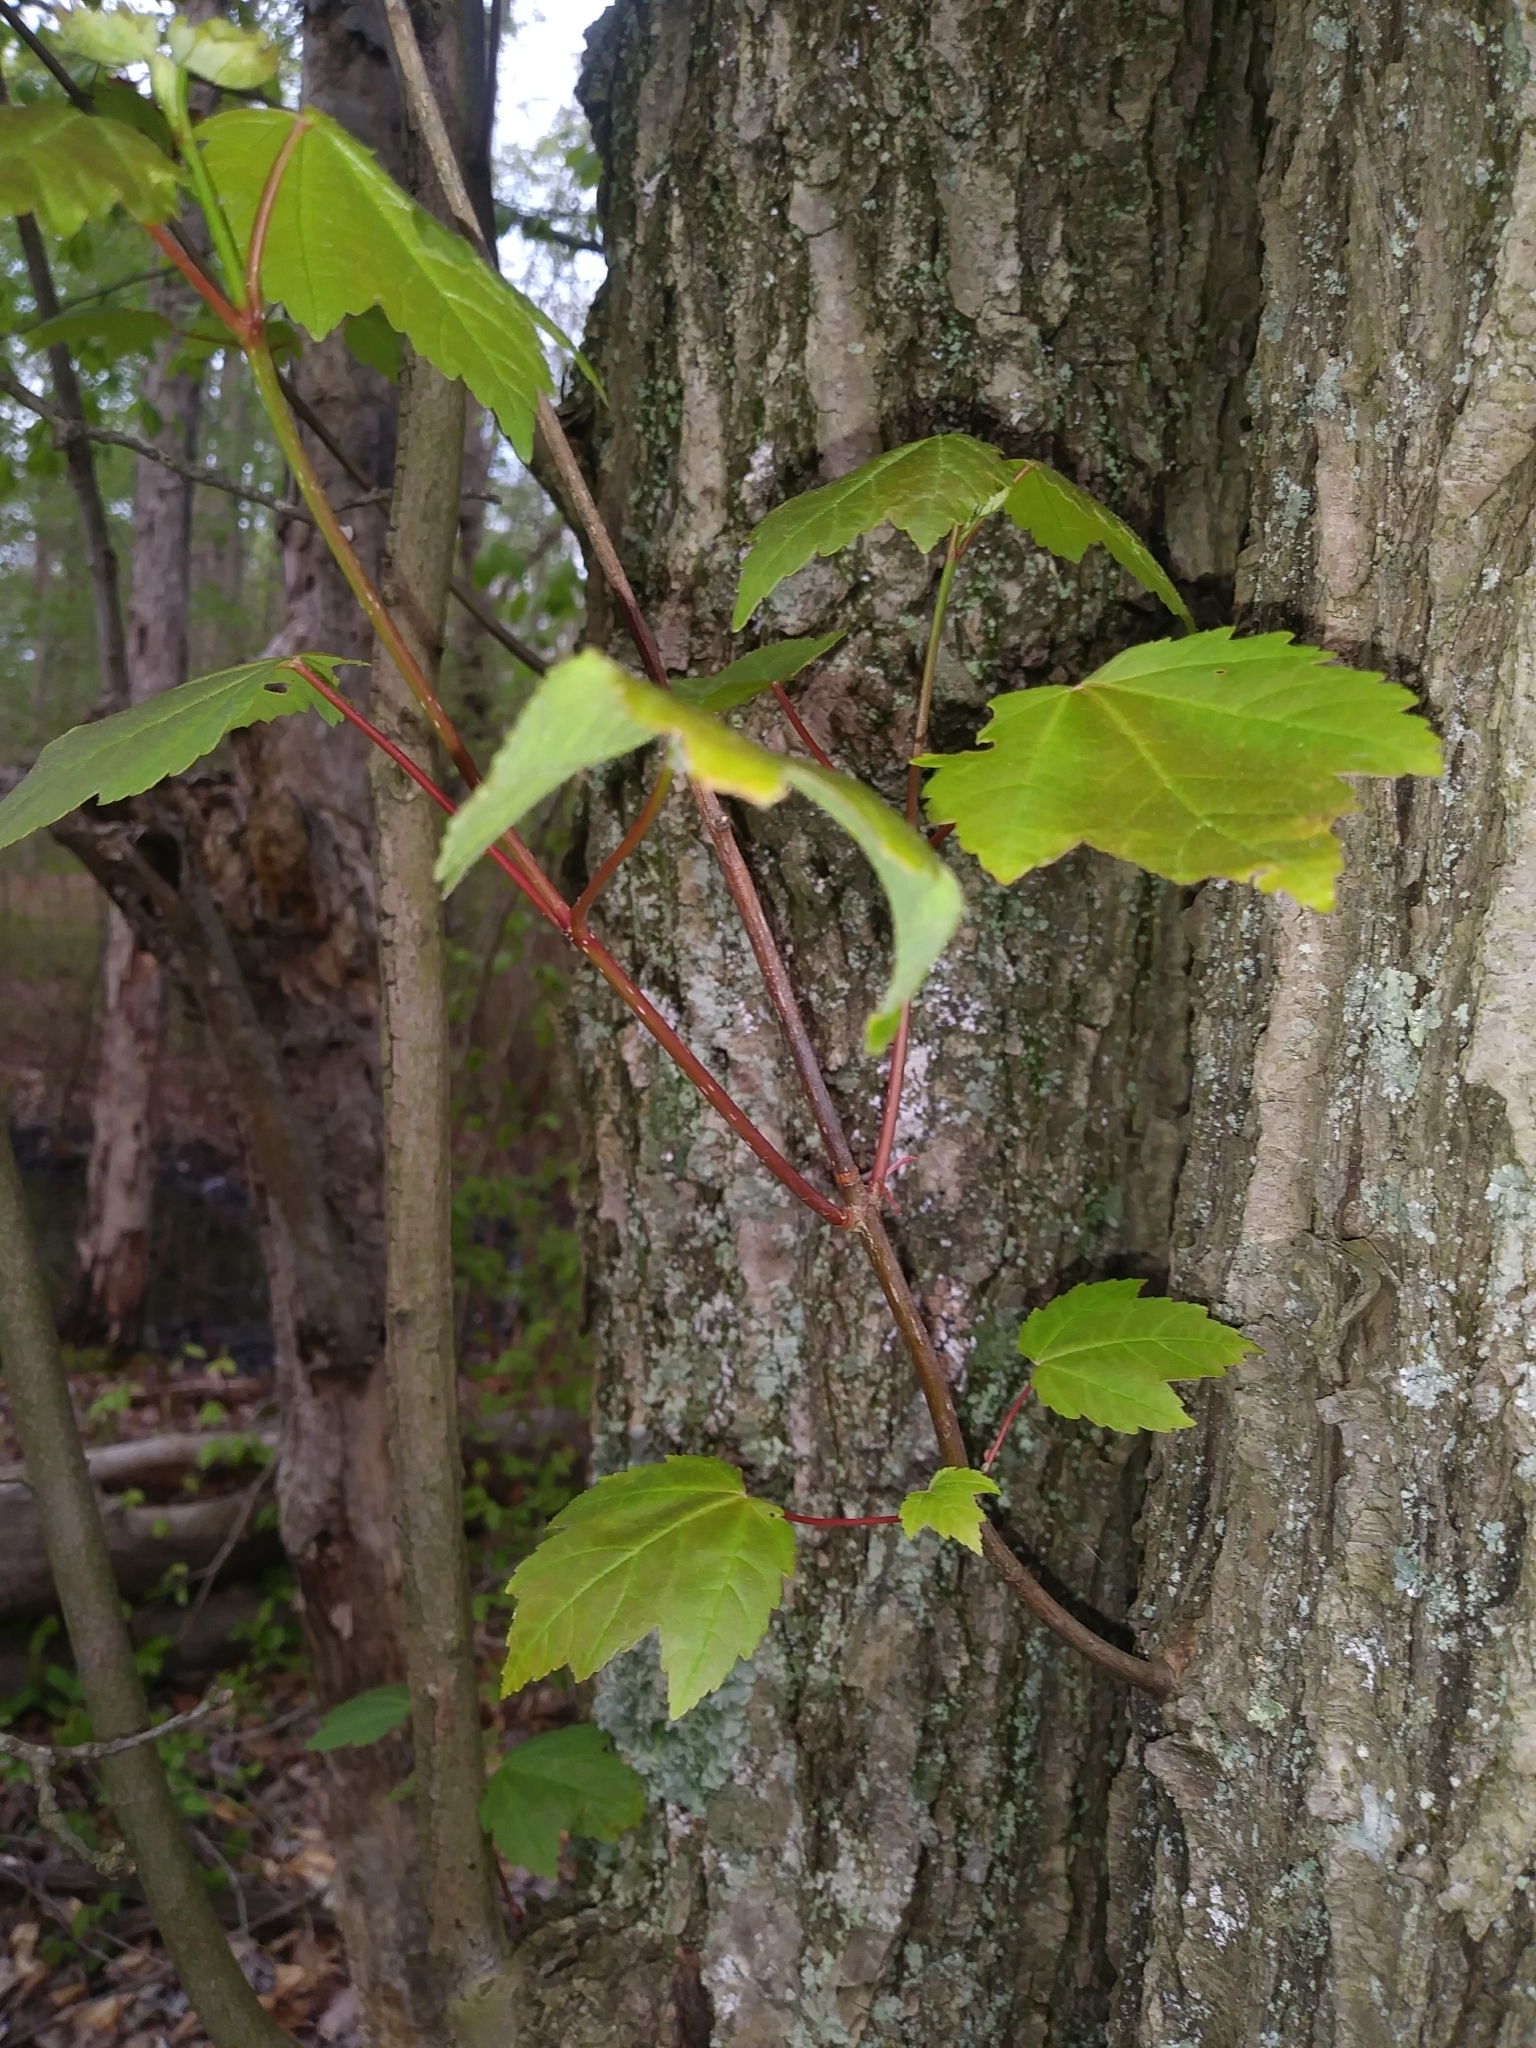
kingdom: Plantae
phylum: Tracheophyta
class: Magnoliopsida
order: Sapindales
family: Sapindaceae
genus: Acer
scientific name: Acer rubrum
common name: Red maple
